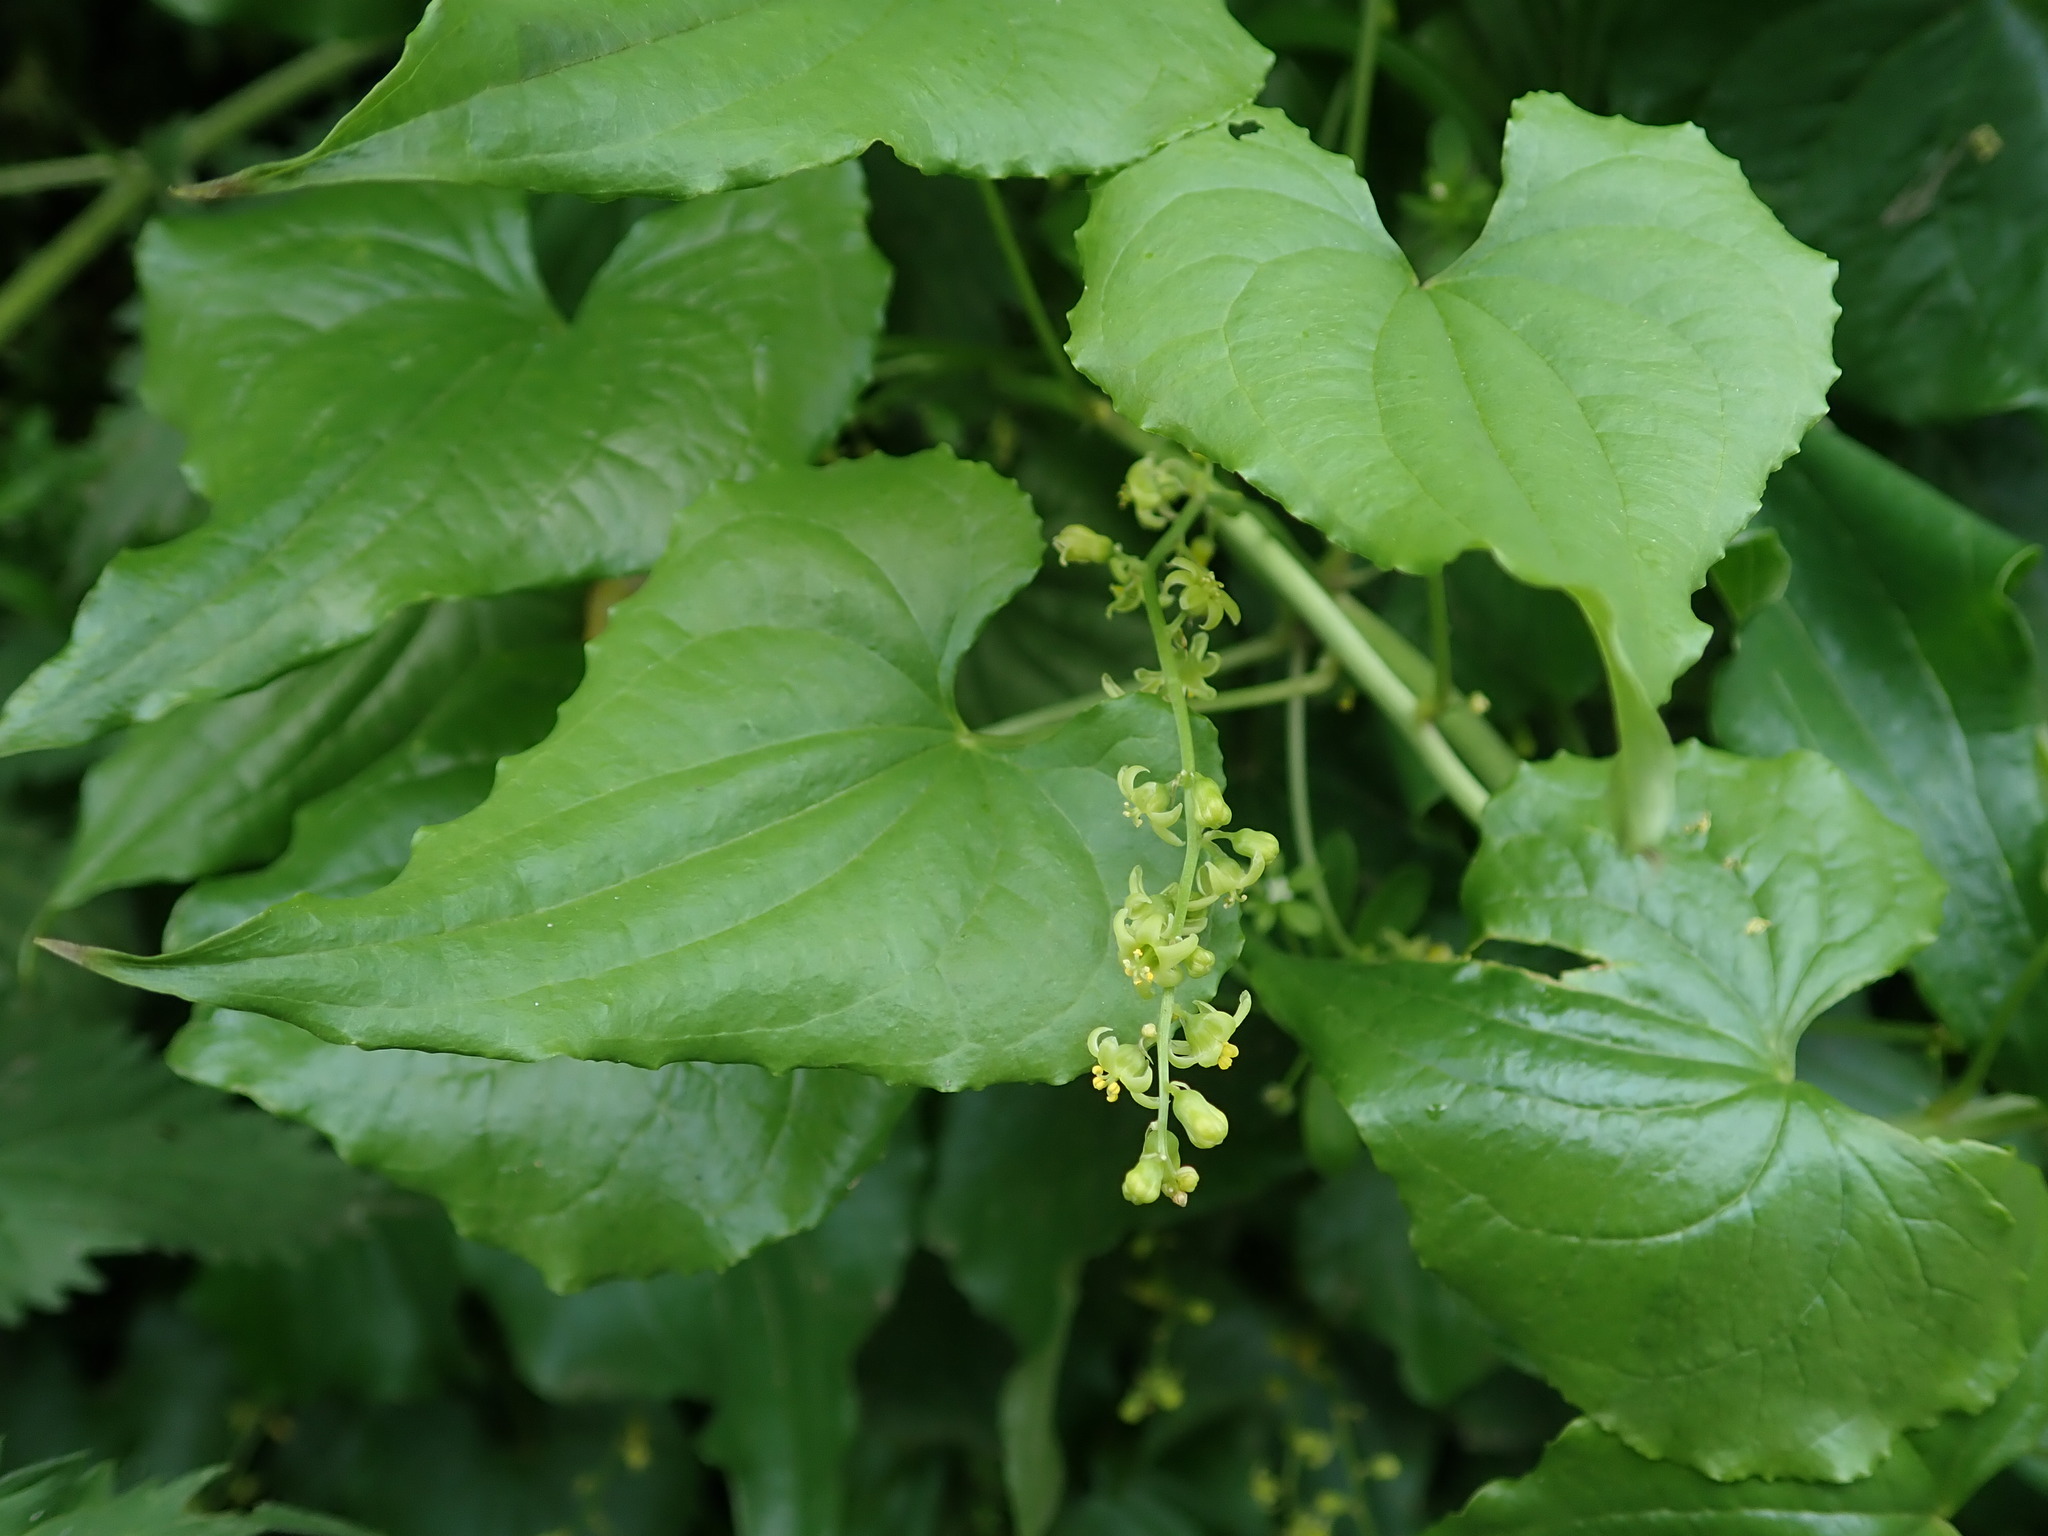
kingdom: Plantae
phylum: Tracheophyta
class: Liliopsida
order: Dioscoreales
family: Dioscoreaceae
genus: Dioscorea
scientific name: Dioscorea communis
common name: Black-bindweed
